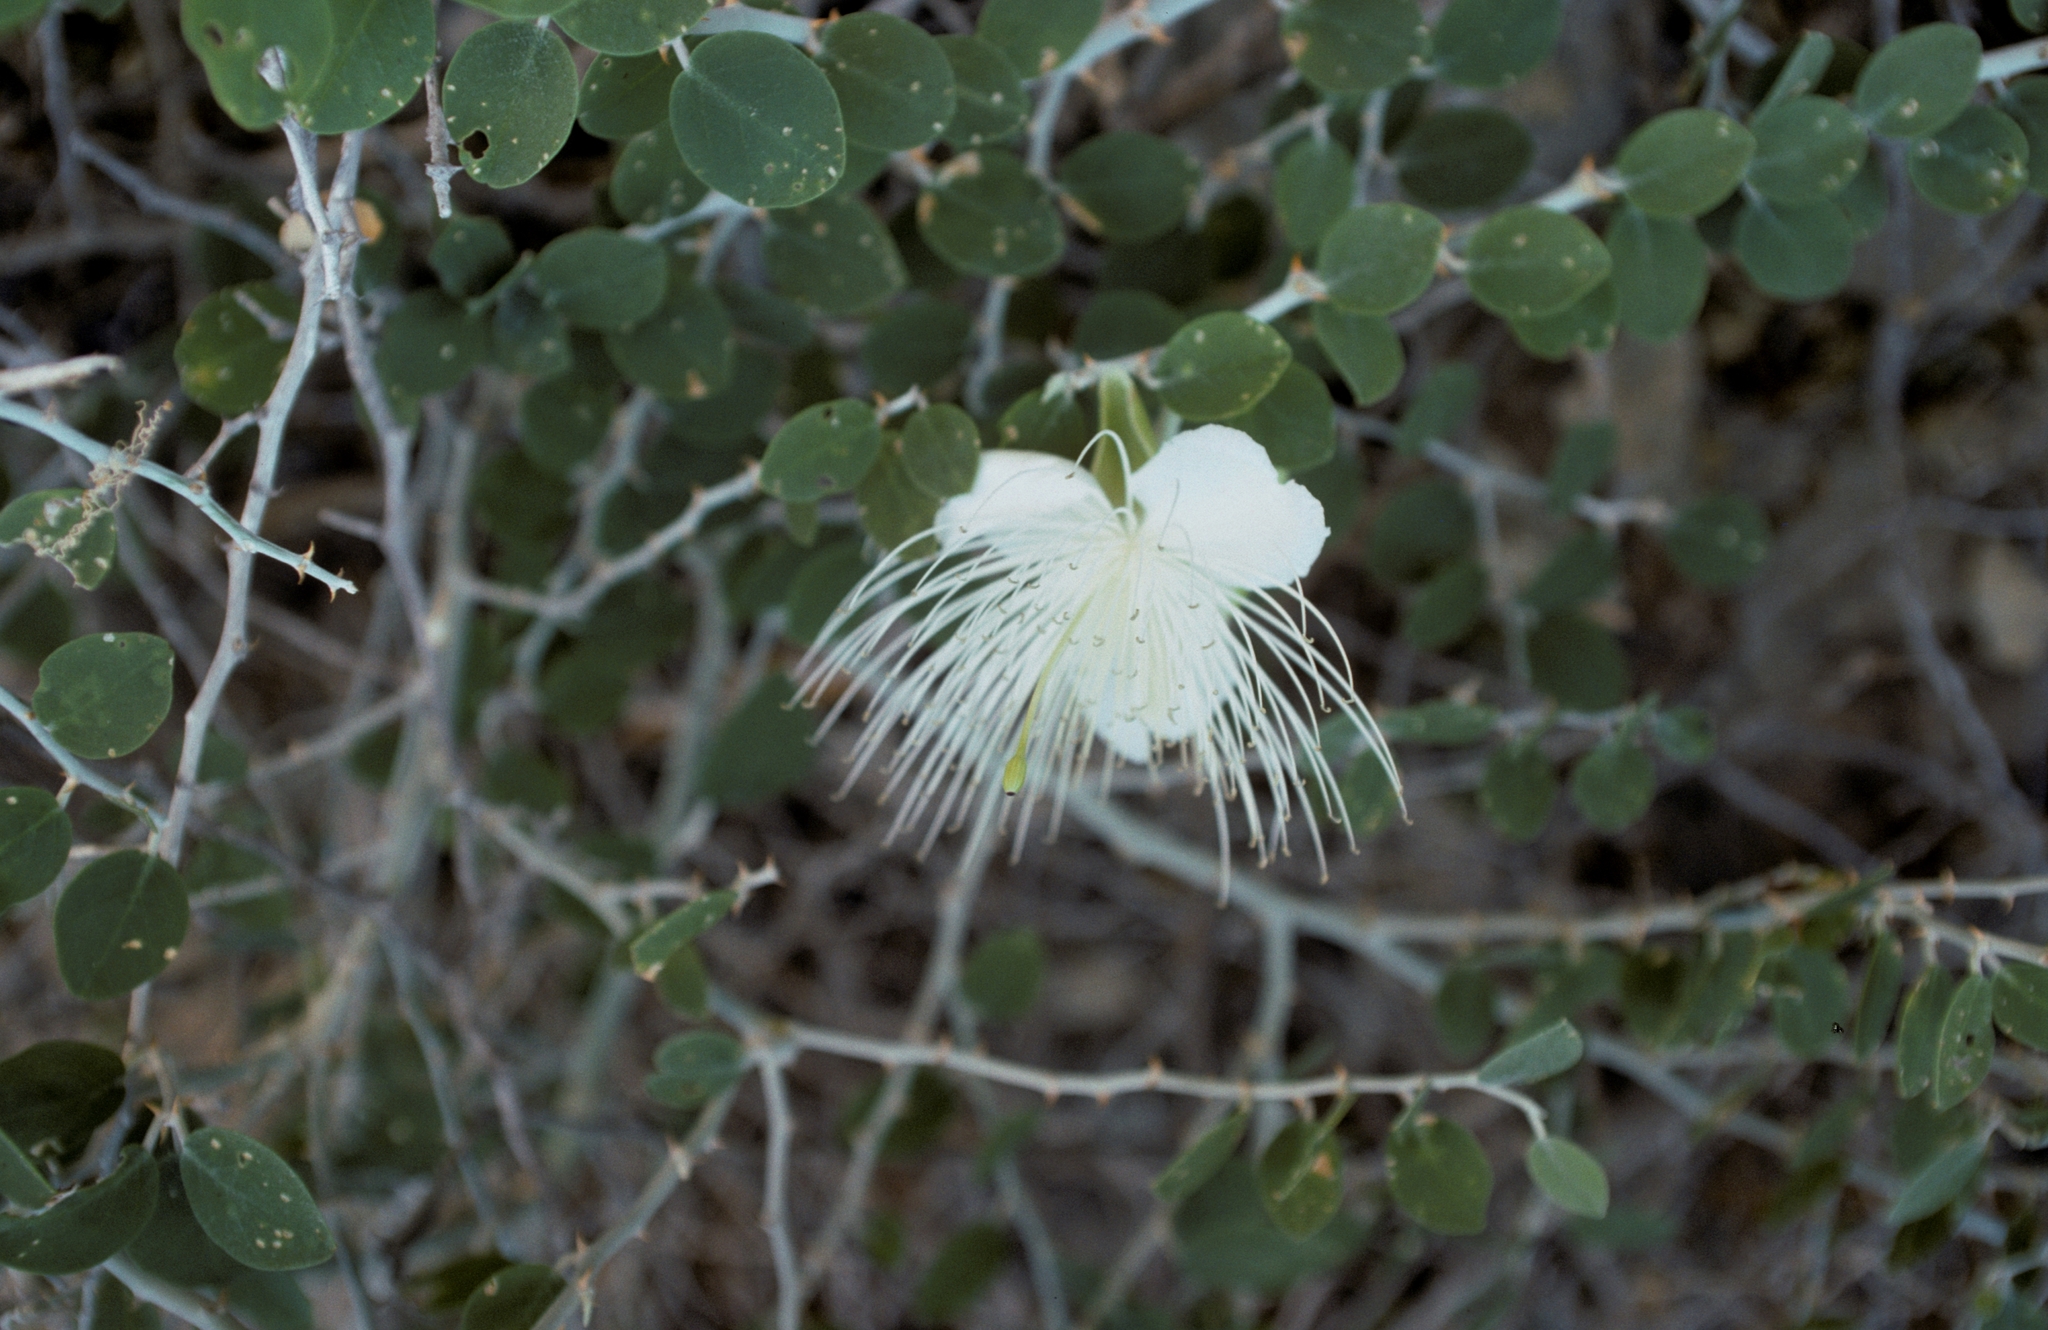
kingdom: Plantae
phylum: Tracheophyta
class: Magnoliopsida
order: Brassicales
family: Capparaceae
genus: Capparis
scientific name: Capparis spinosa
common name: Caper
